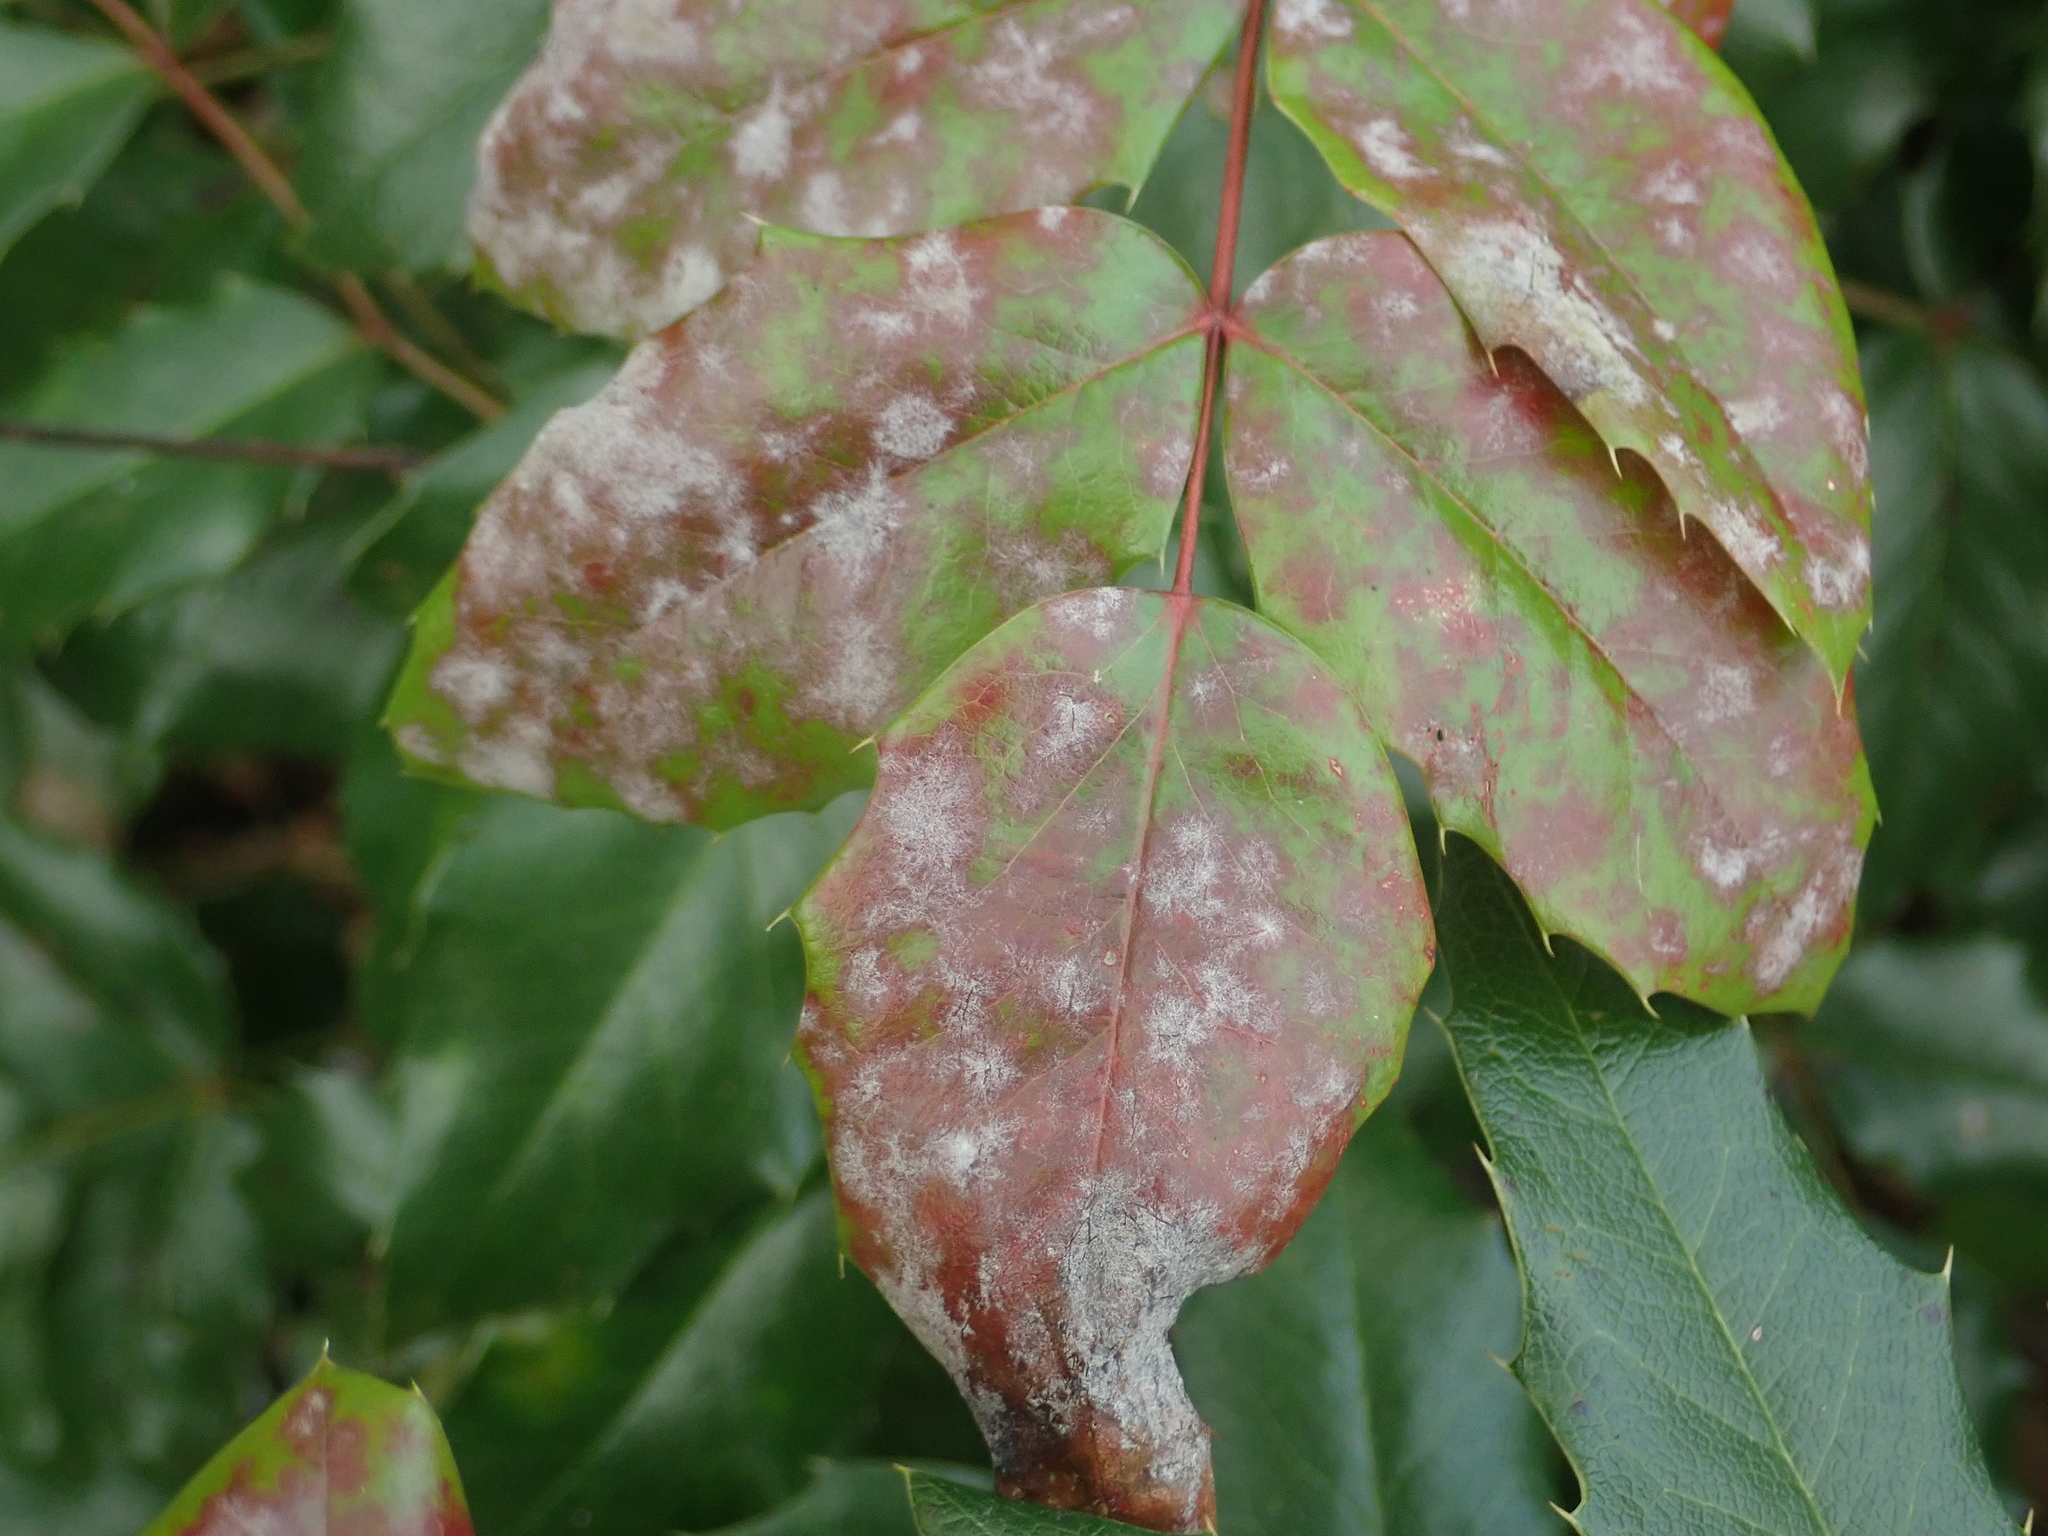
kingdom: Fungi
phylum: Ascomycota
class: Leotiomycetes
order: Helotiales
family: Erysiphaceae
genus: Erysiphe
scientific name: Erysiphe berberidis
